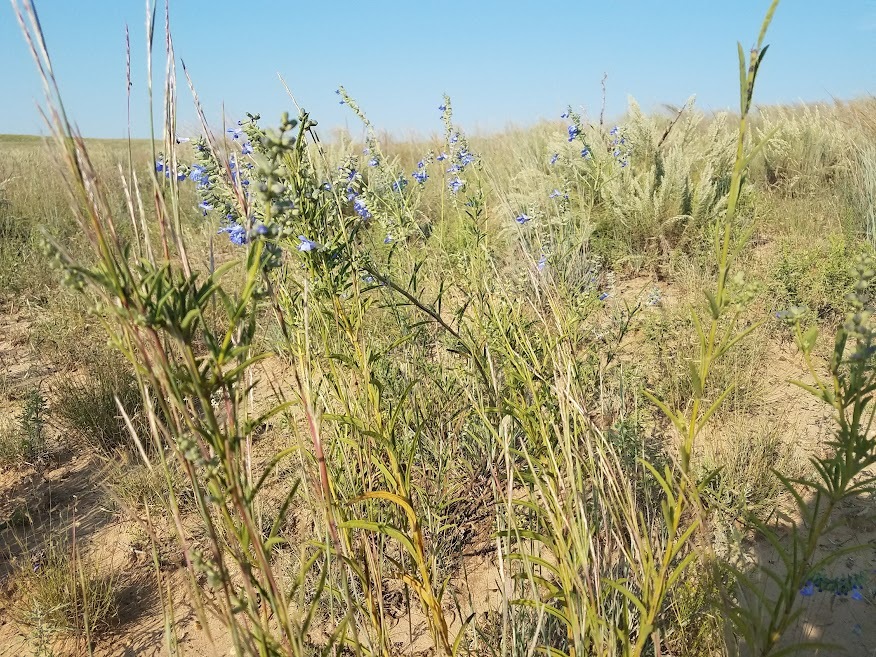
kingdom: Plantae
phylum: Tracheophyta
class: Magnoliopsida
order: Lamiales
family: Lamiaceae
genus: Salvia
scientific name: Salvia azurea
